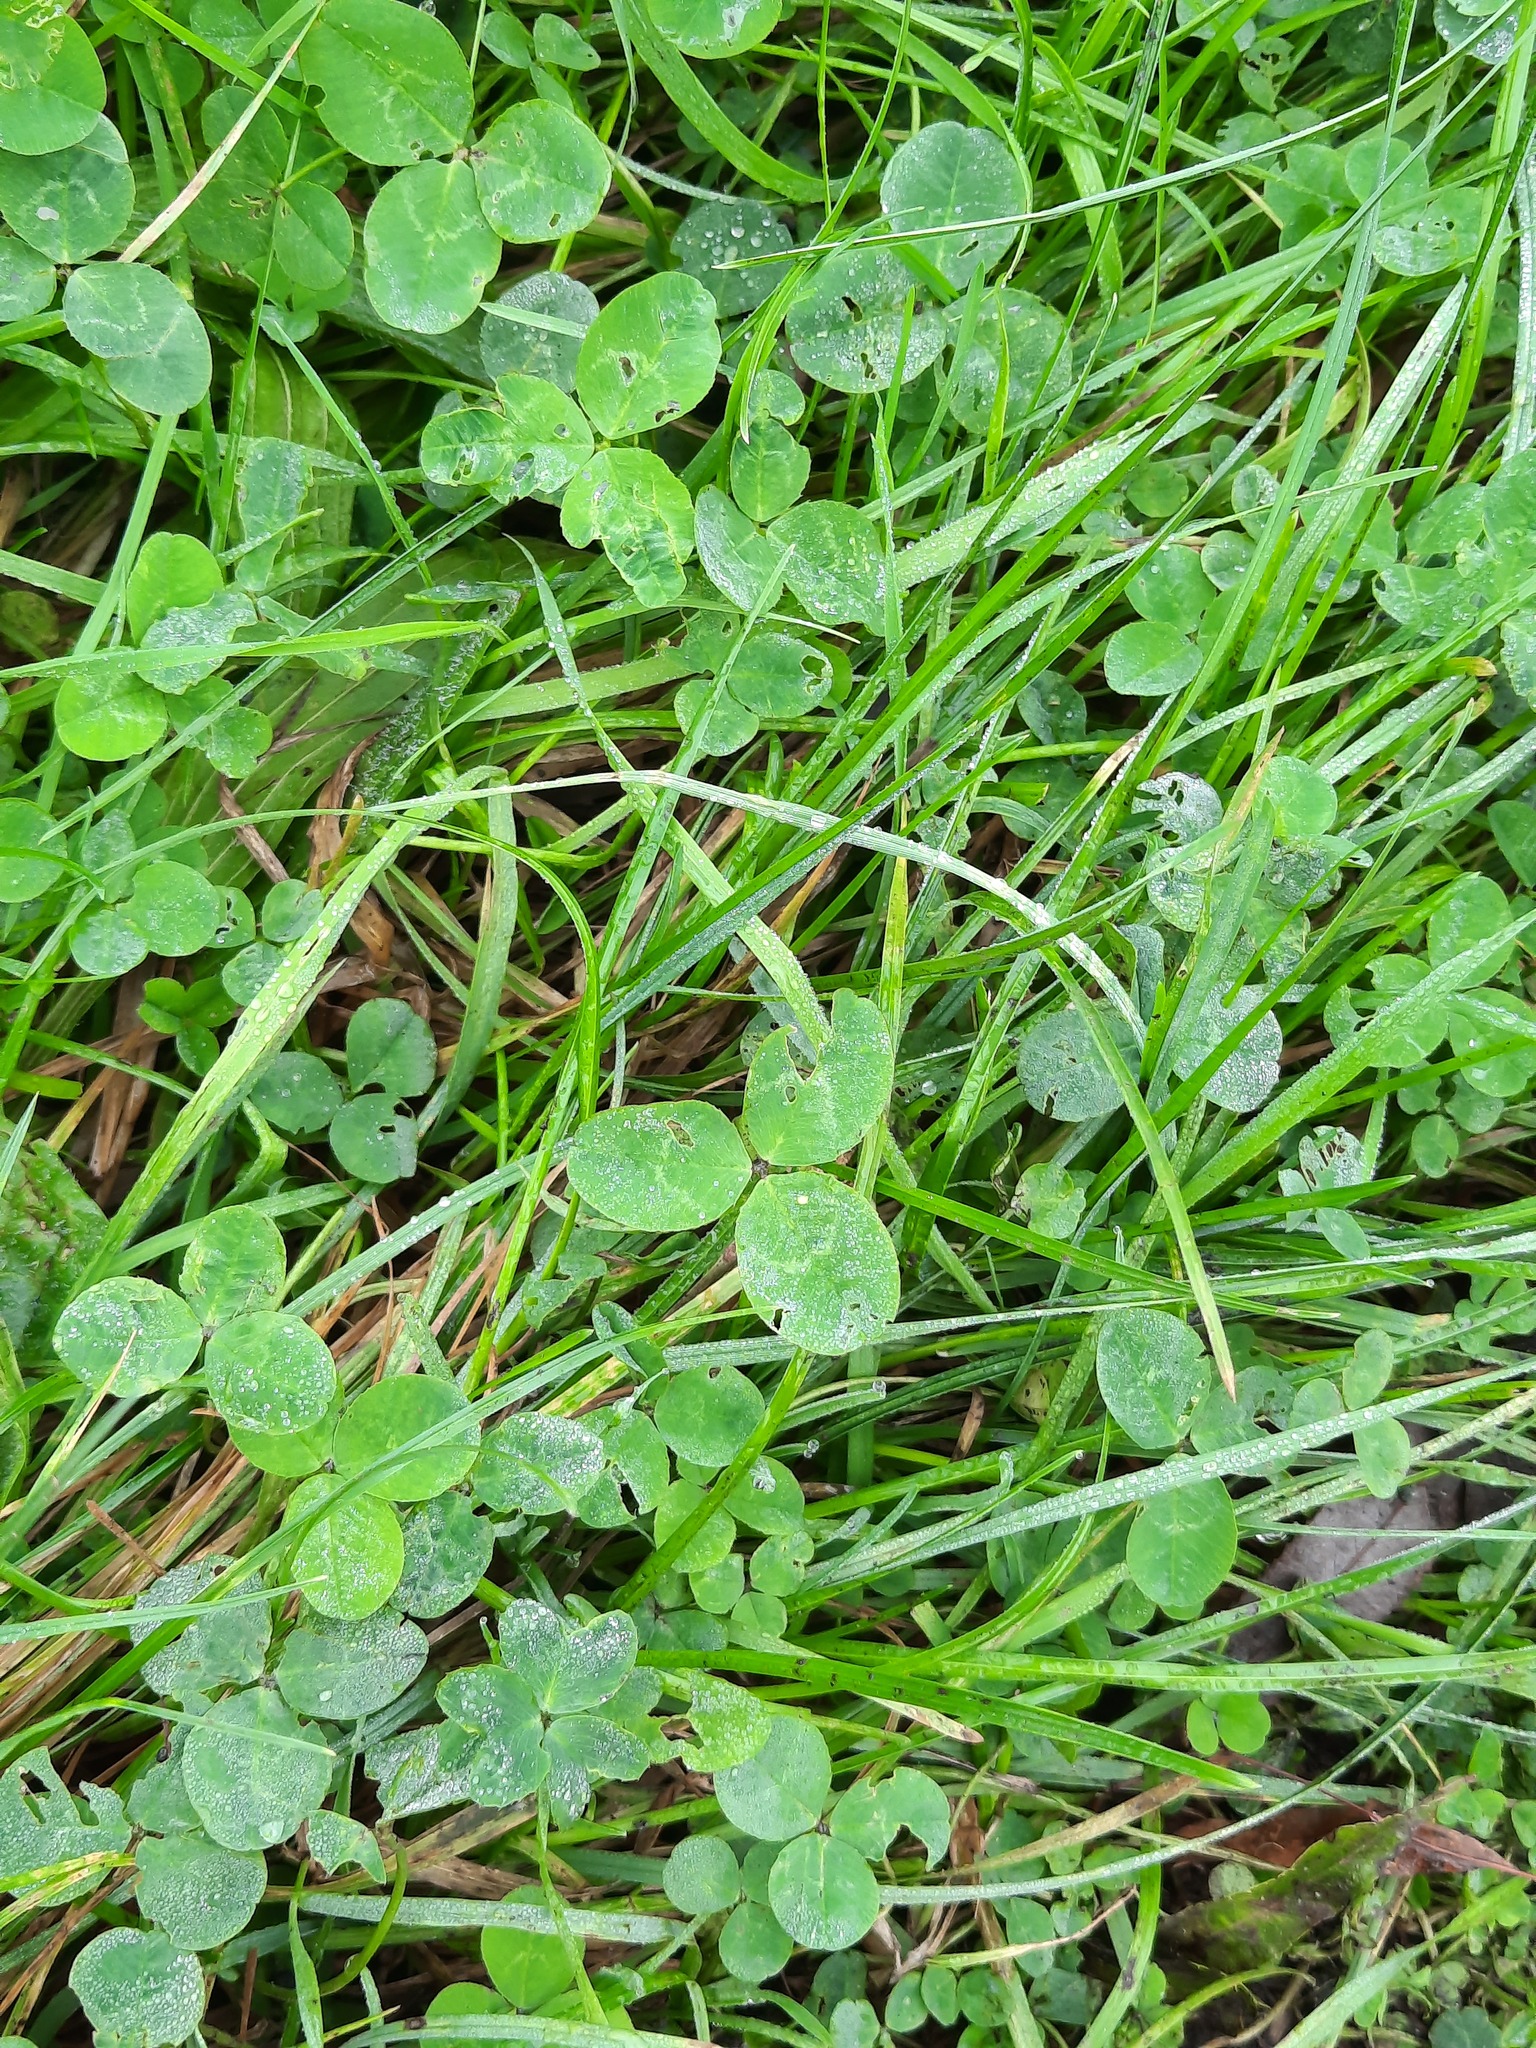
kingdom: Plantae
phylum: Tracheophyta
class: Magnoliopsida
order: Fabales
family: Fabaceae
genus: Trifolium
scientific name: Trifolium repens
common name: White clover
